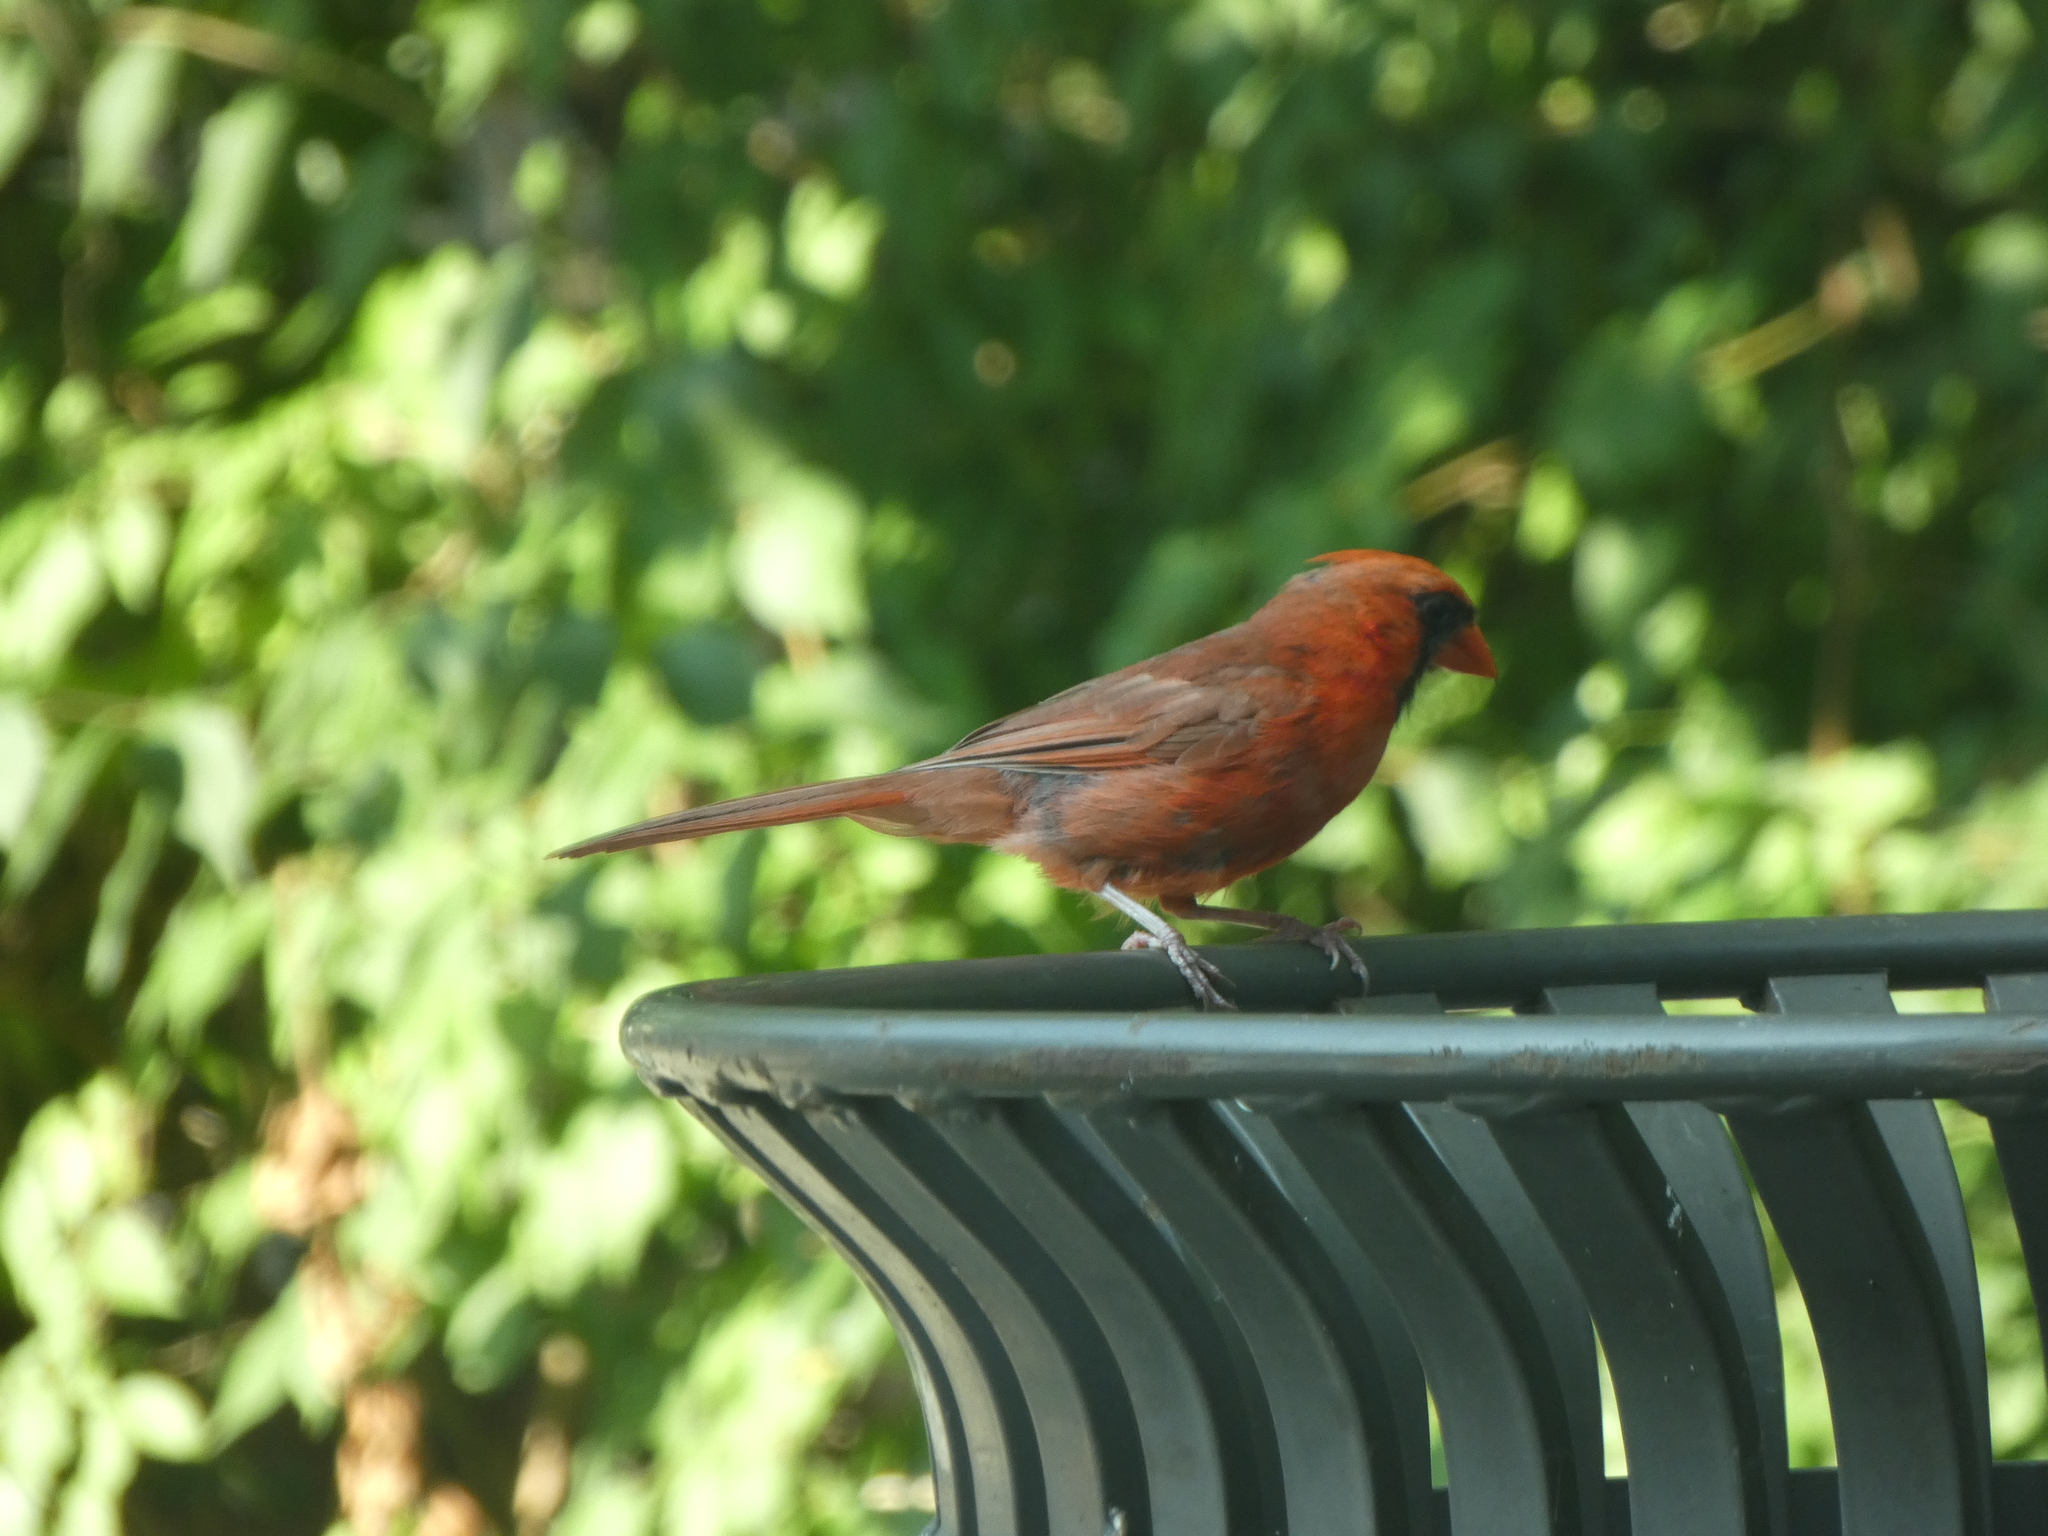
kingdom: Animalia
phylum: Chordata
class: Aves
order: Passeriformes
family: Cardinalidae
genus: Cardinalis
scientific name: Cardinalis cardinalis
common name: Northern cardinal
